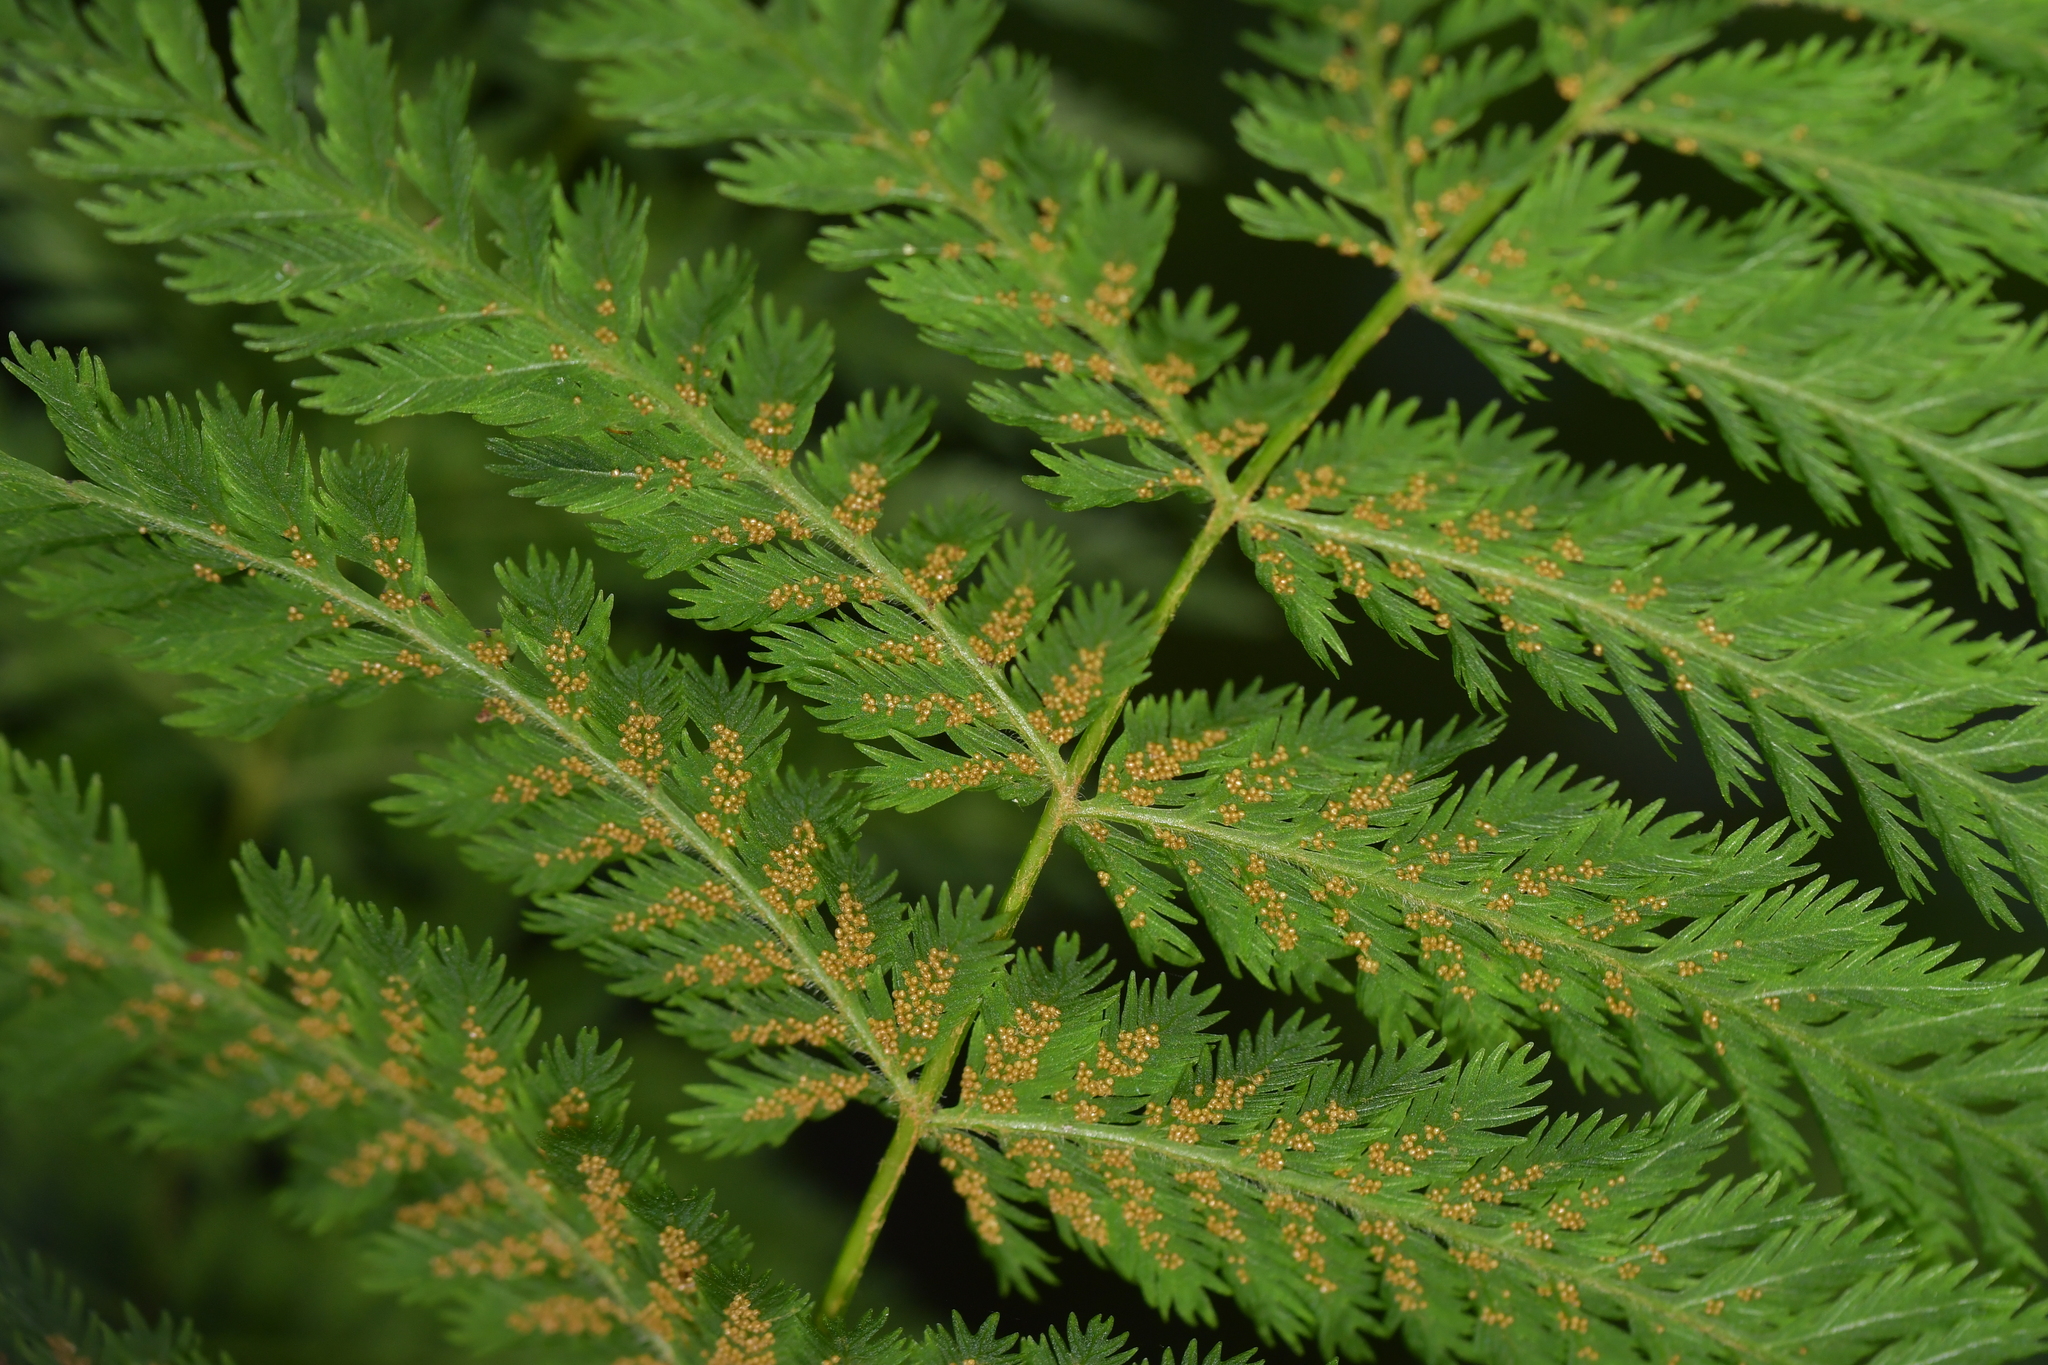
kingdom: Plantae
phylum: Tracheophyta
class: Polypodiopsida
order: Osmundales
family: Osmundaceae
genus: Leptopteris
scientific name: Leptopteris hymenophylloides
